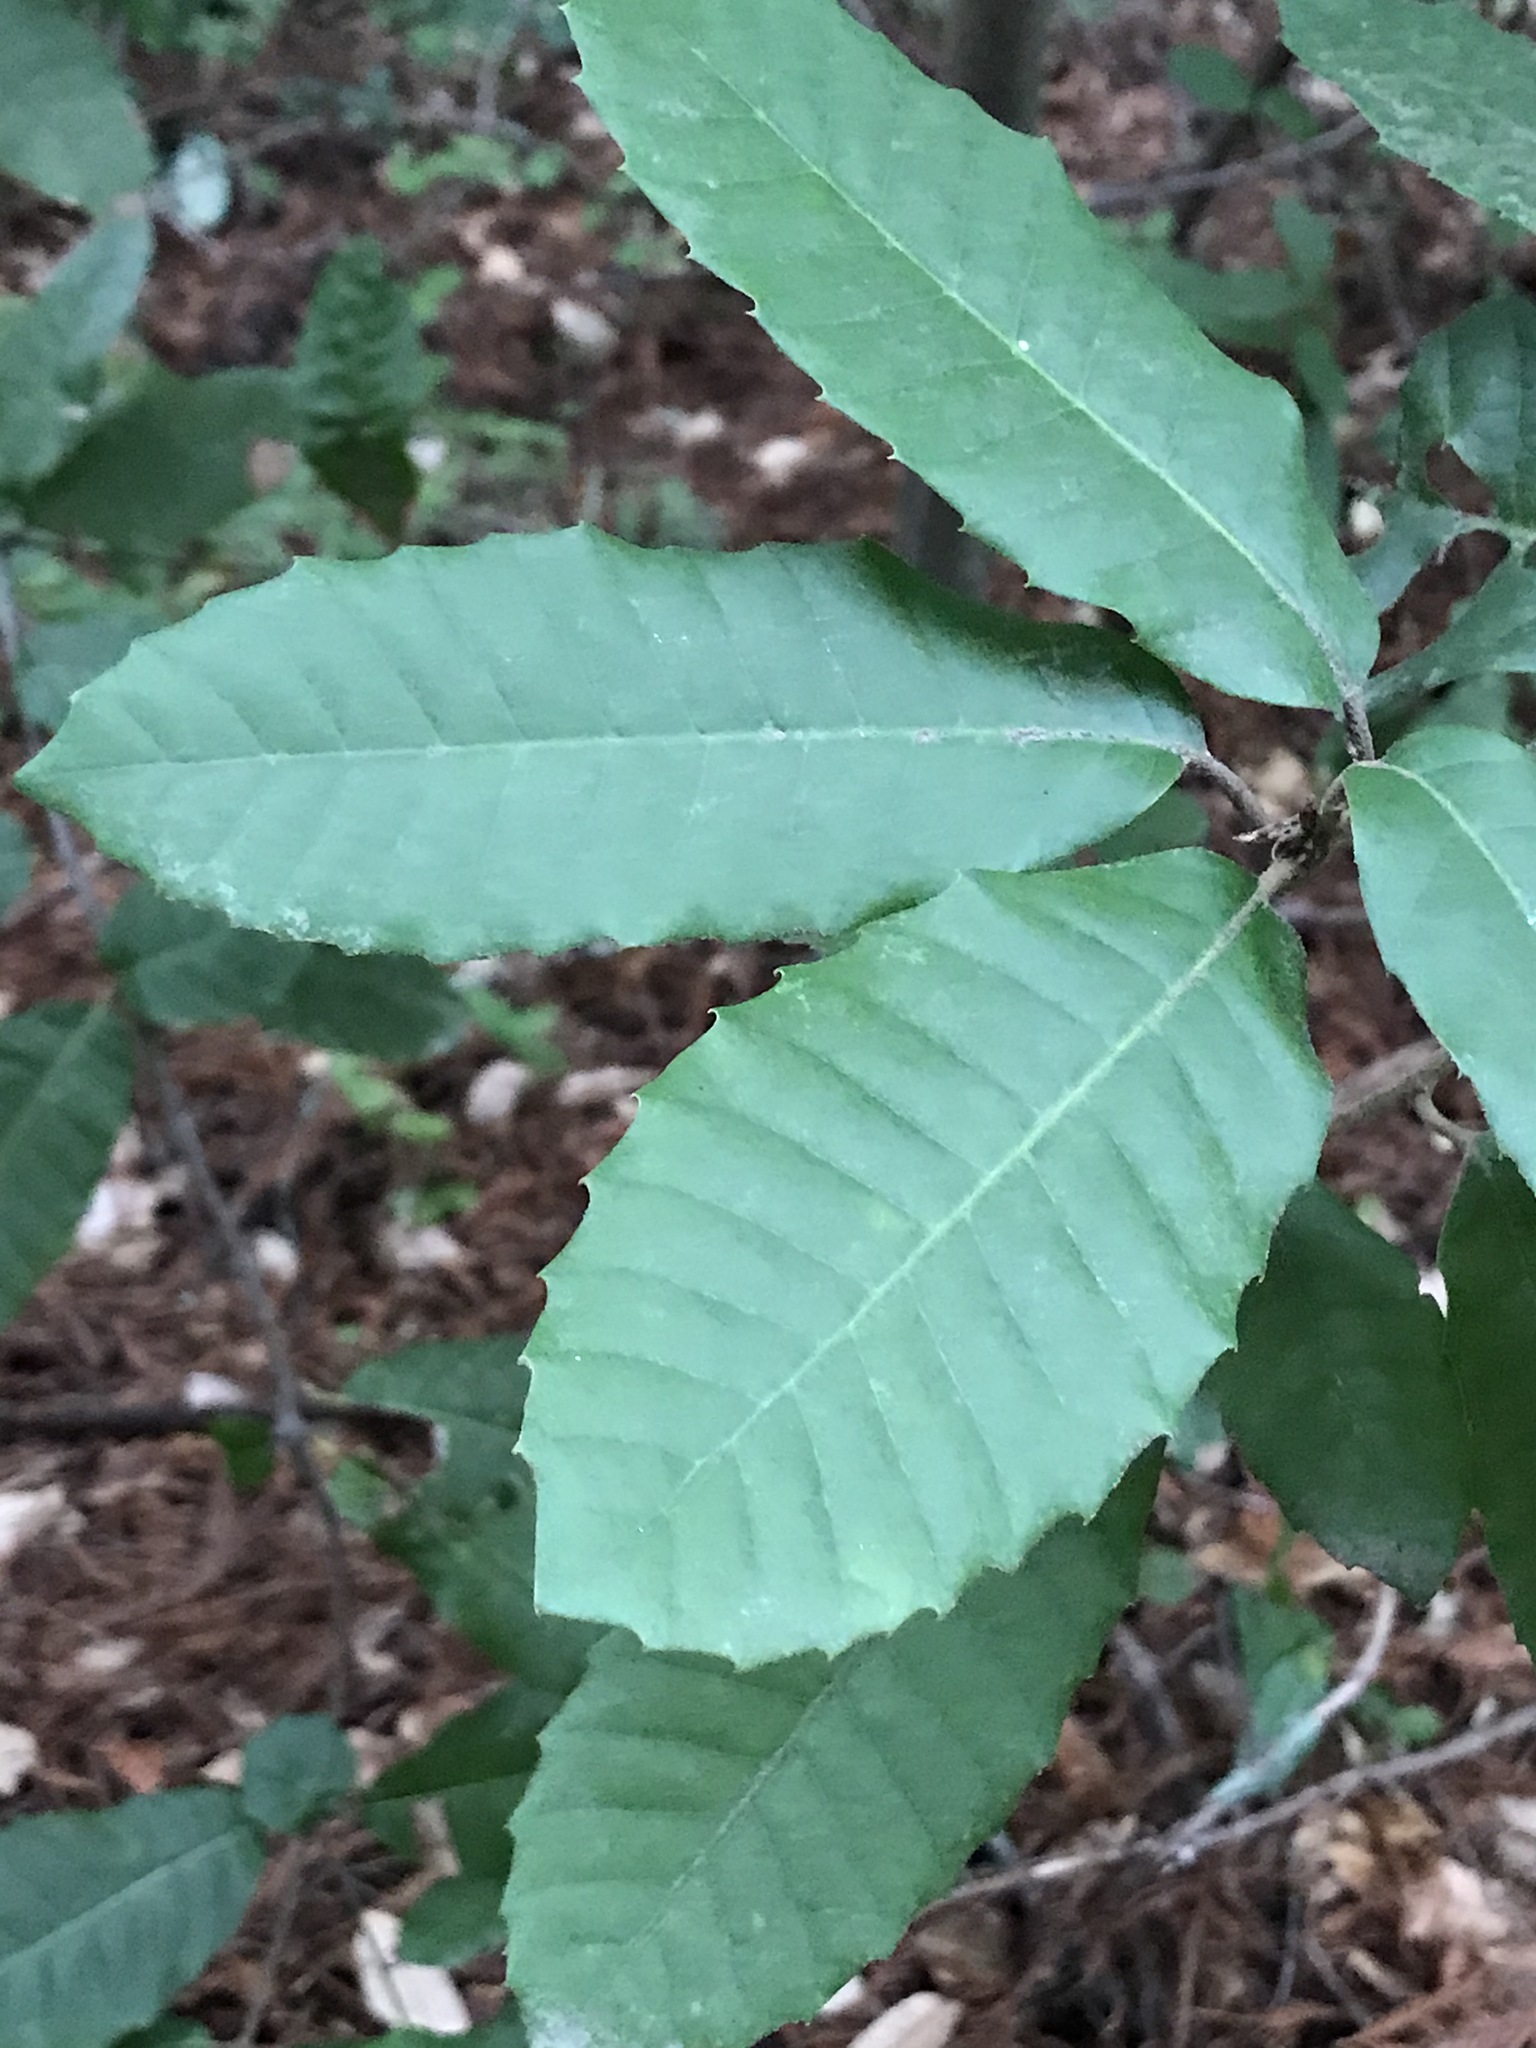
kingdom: Plantae
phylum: Tracheophyta
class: Magnoliopsida
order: Fagales
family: Fagaceae
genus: Notholithocarpus
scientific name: Notholithocarpus densiflorus
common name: Tan bark oak
